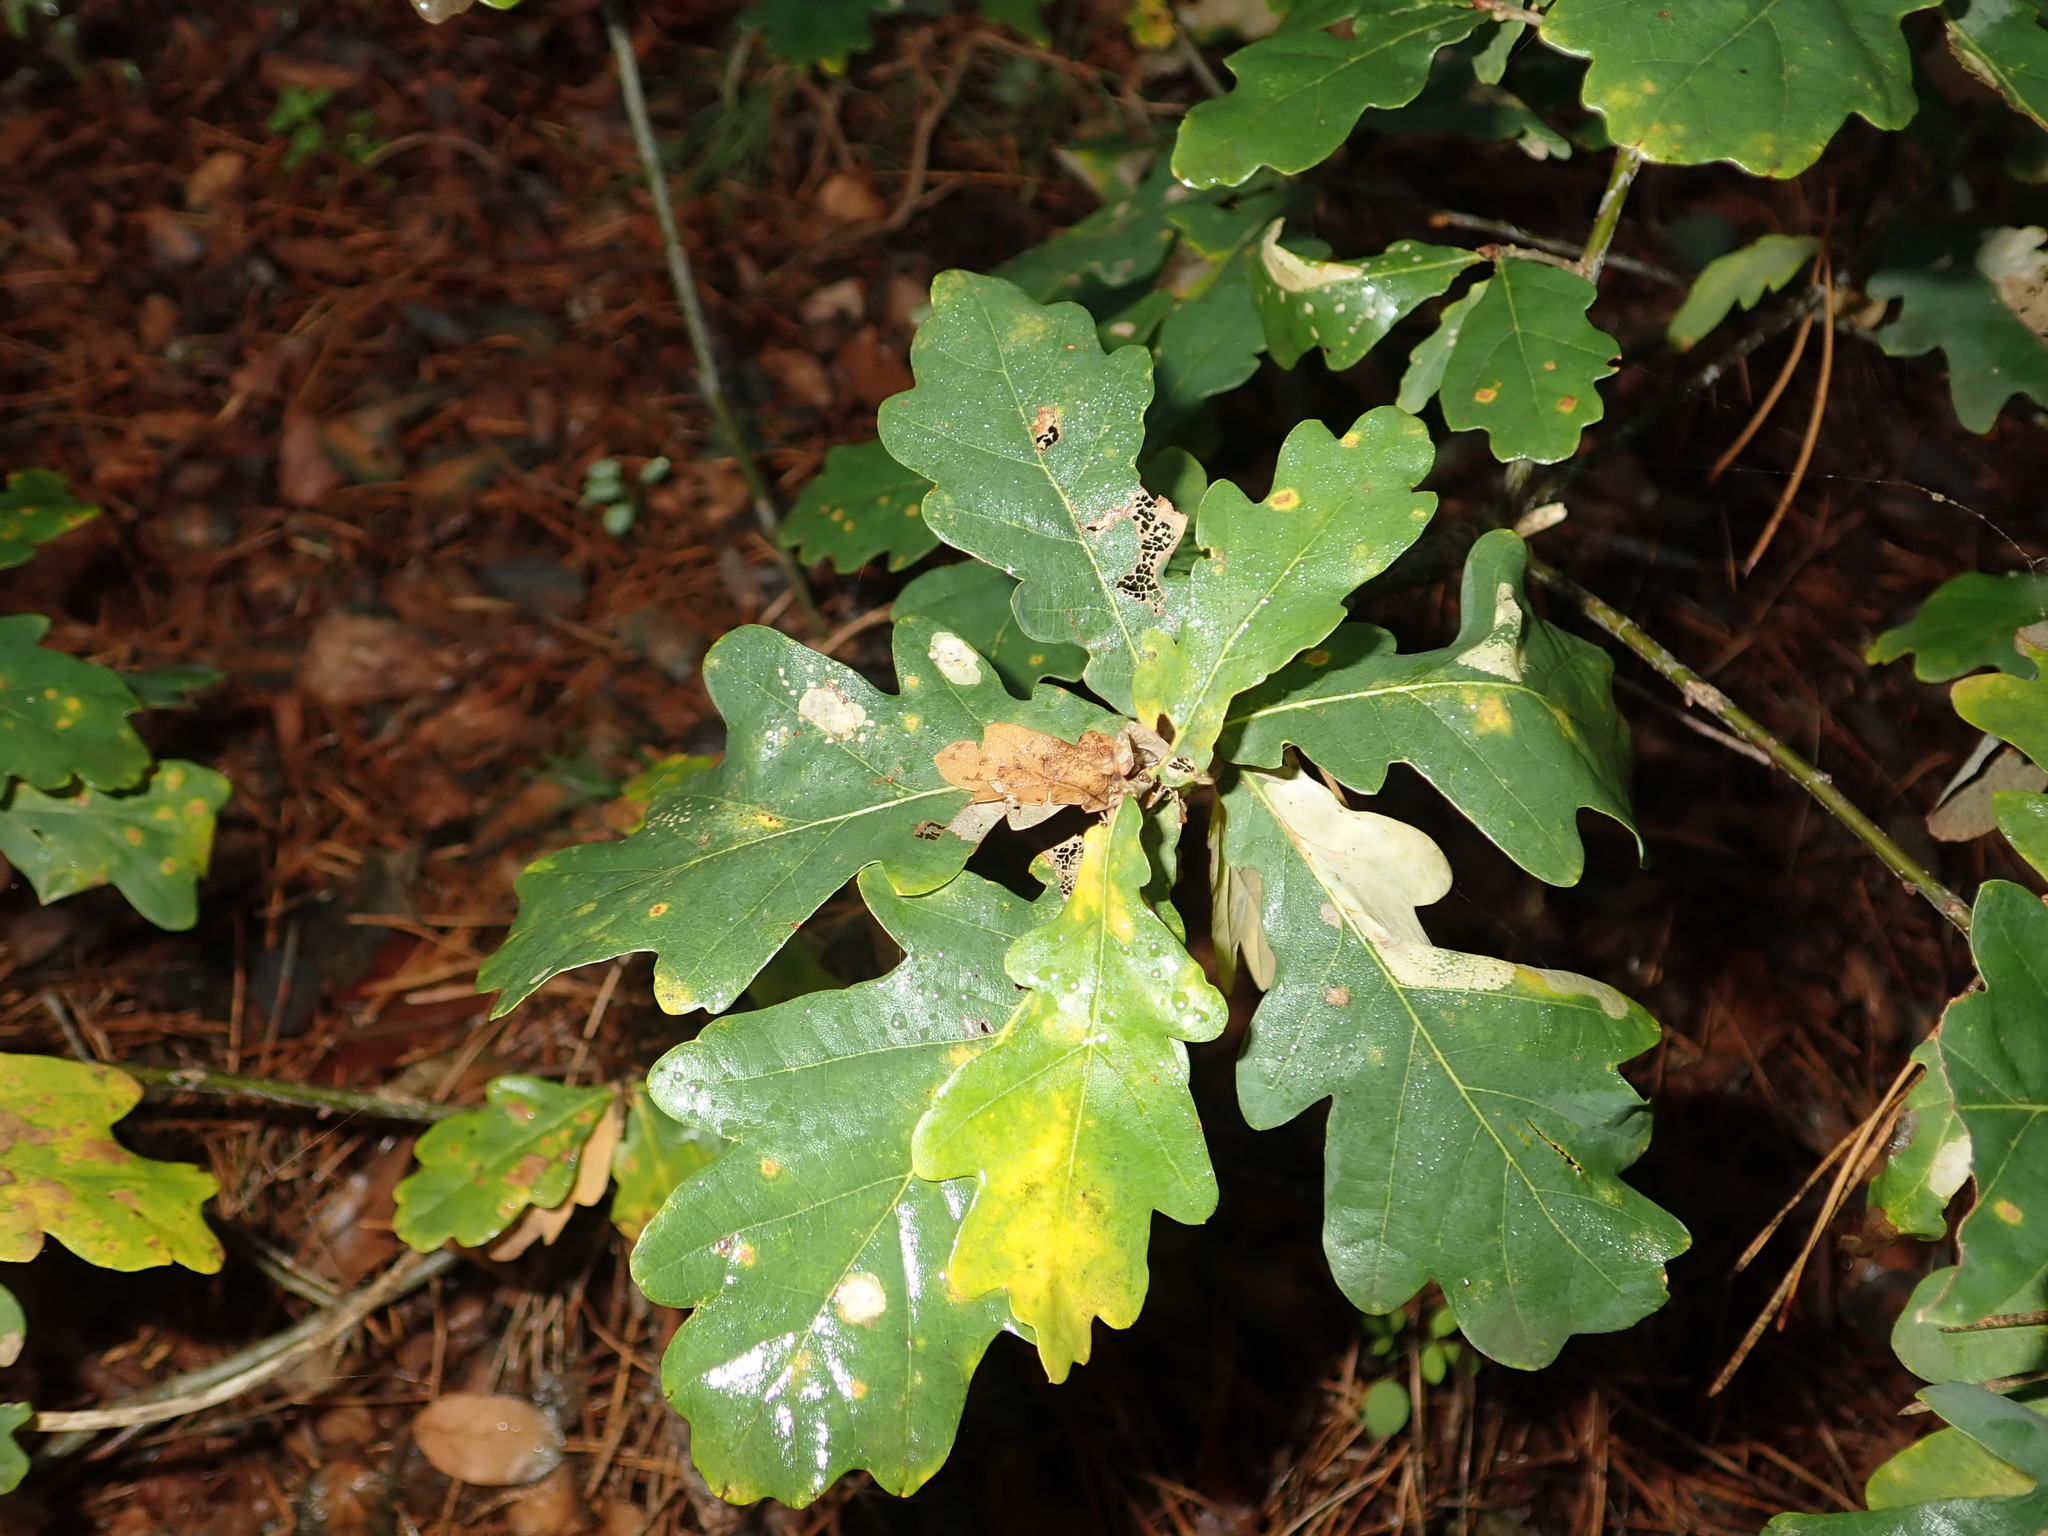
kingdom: Plantae
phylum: Tracheophyta
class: Magnoliopsida
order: Fagales
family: Fagaceae
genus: Quercus
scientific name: Quercus robur
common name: Pedunculate oak
